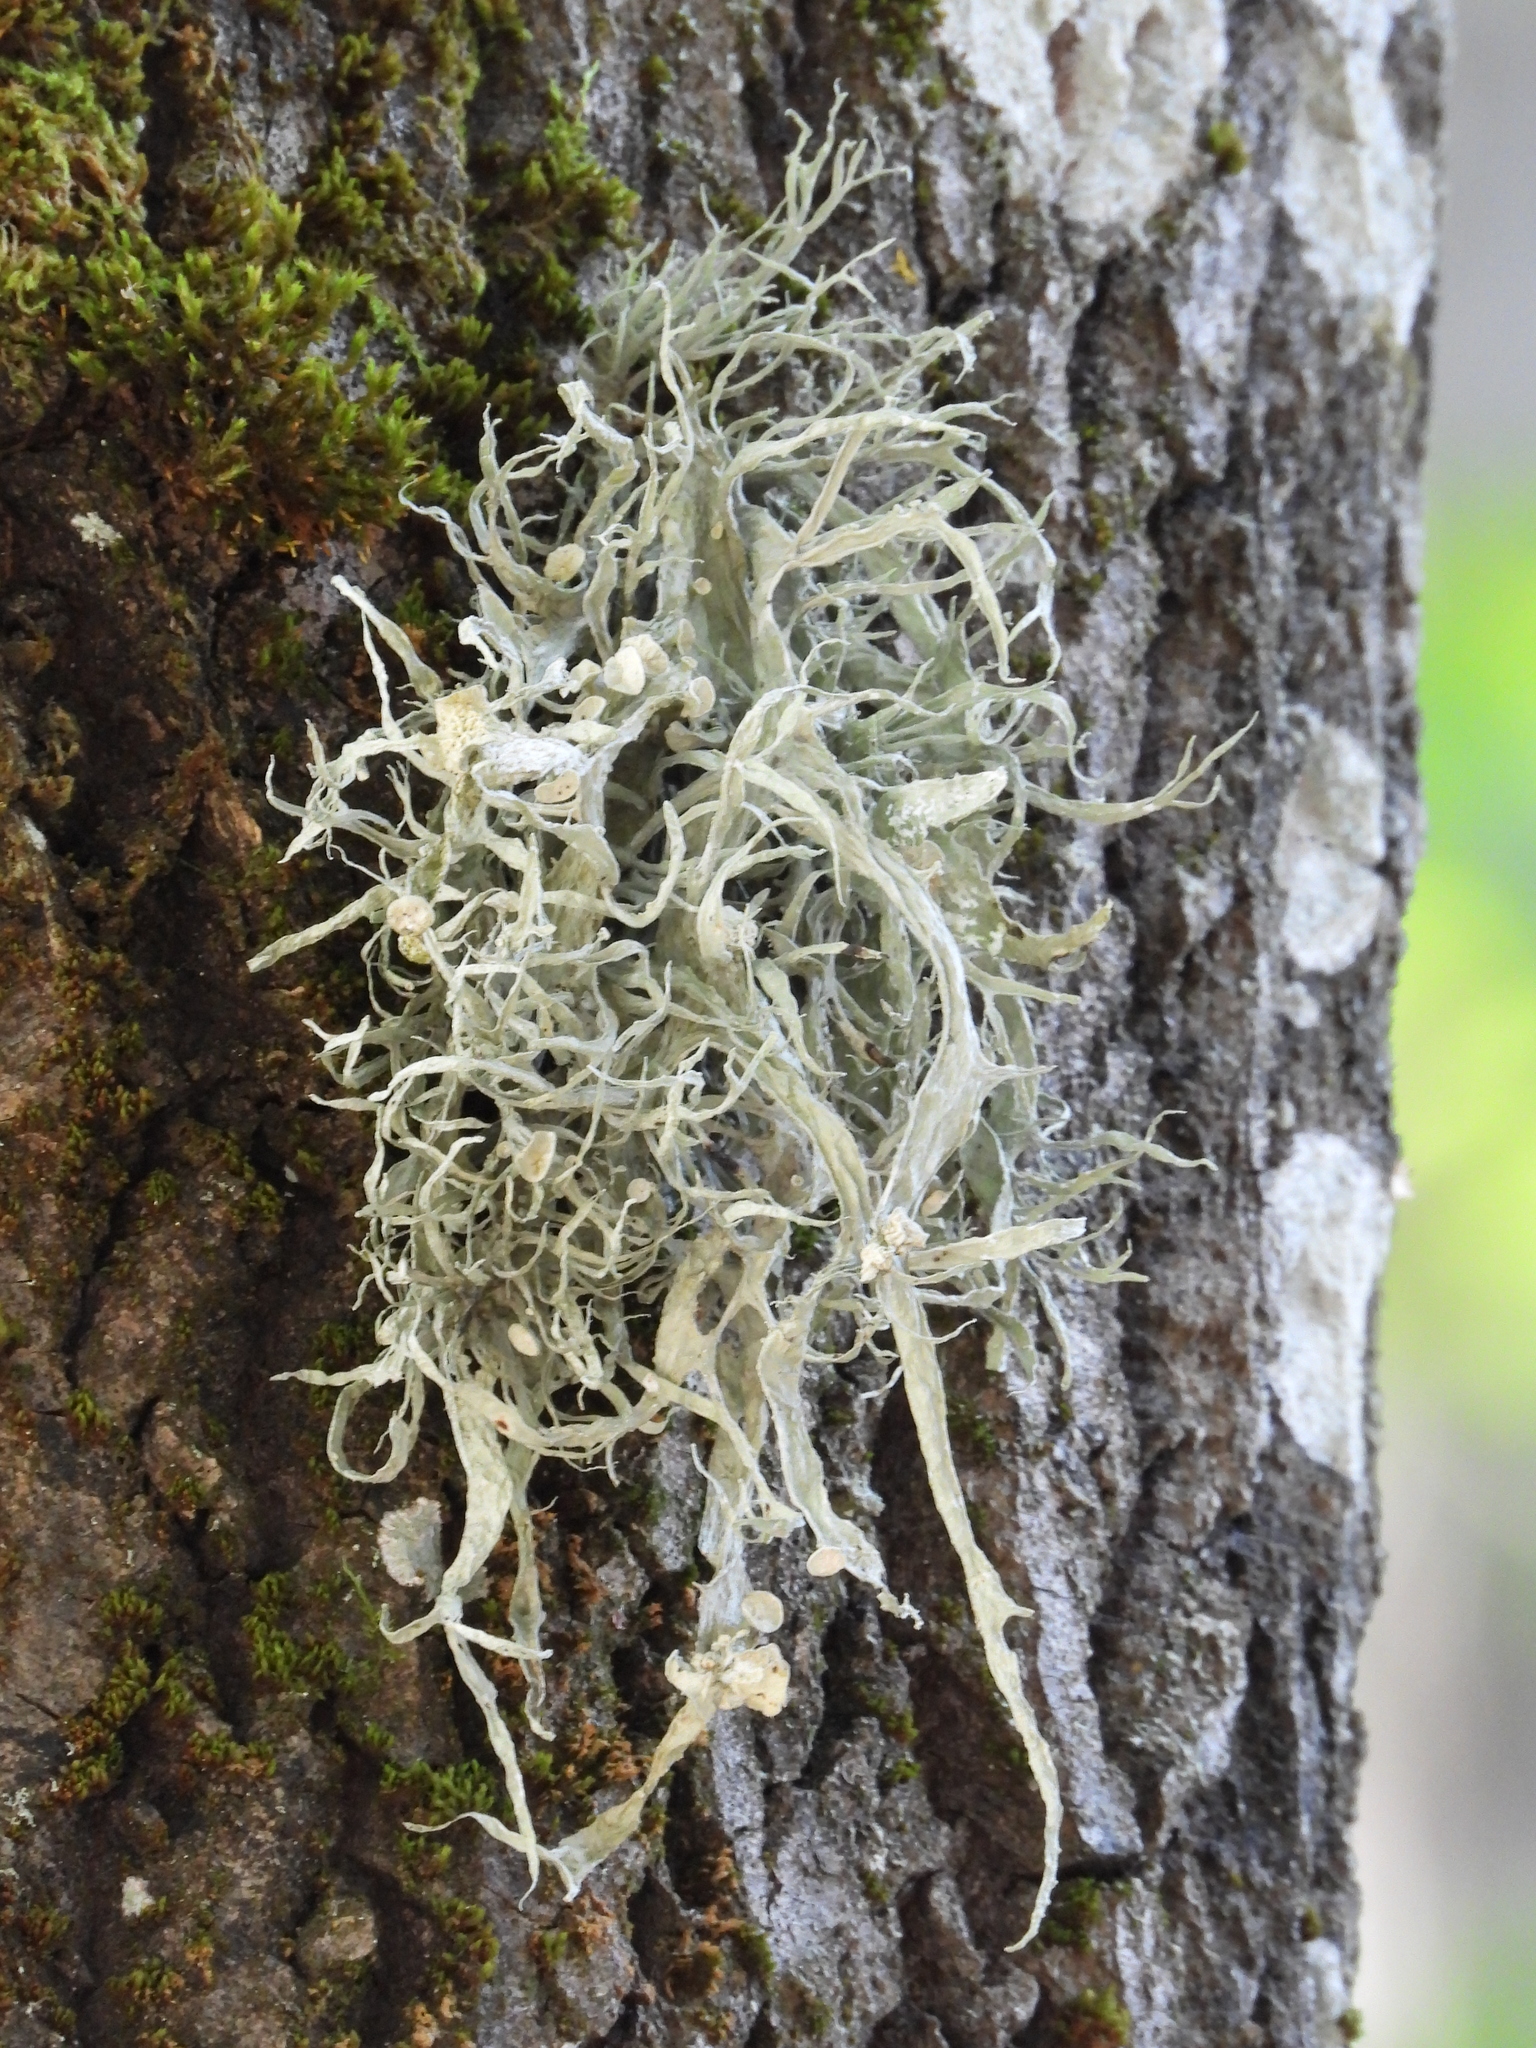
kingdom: Fungi
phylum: Ascomycota
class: Lecanoromycetes
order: Lecanorales
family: Ramalinaceae
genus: Ramalina
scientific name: Ramalina fraxinea
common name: Cartilage lichen
